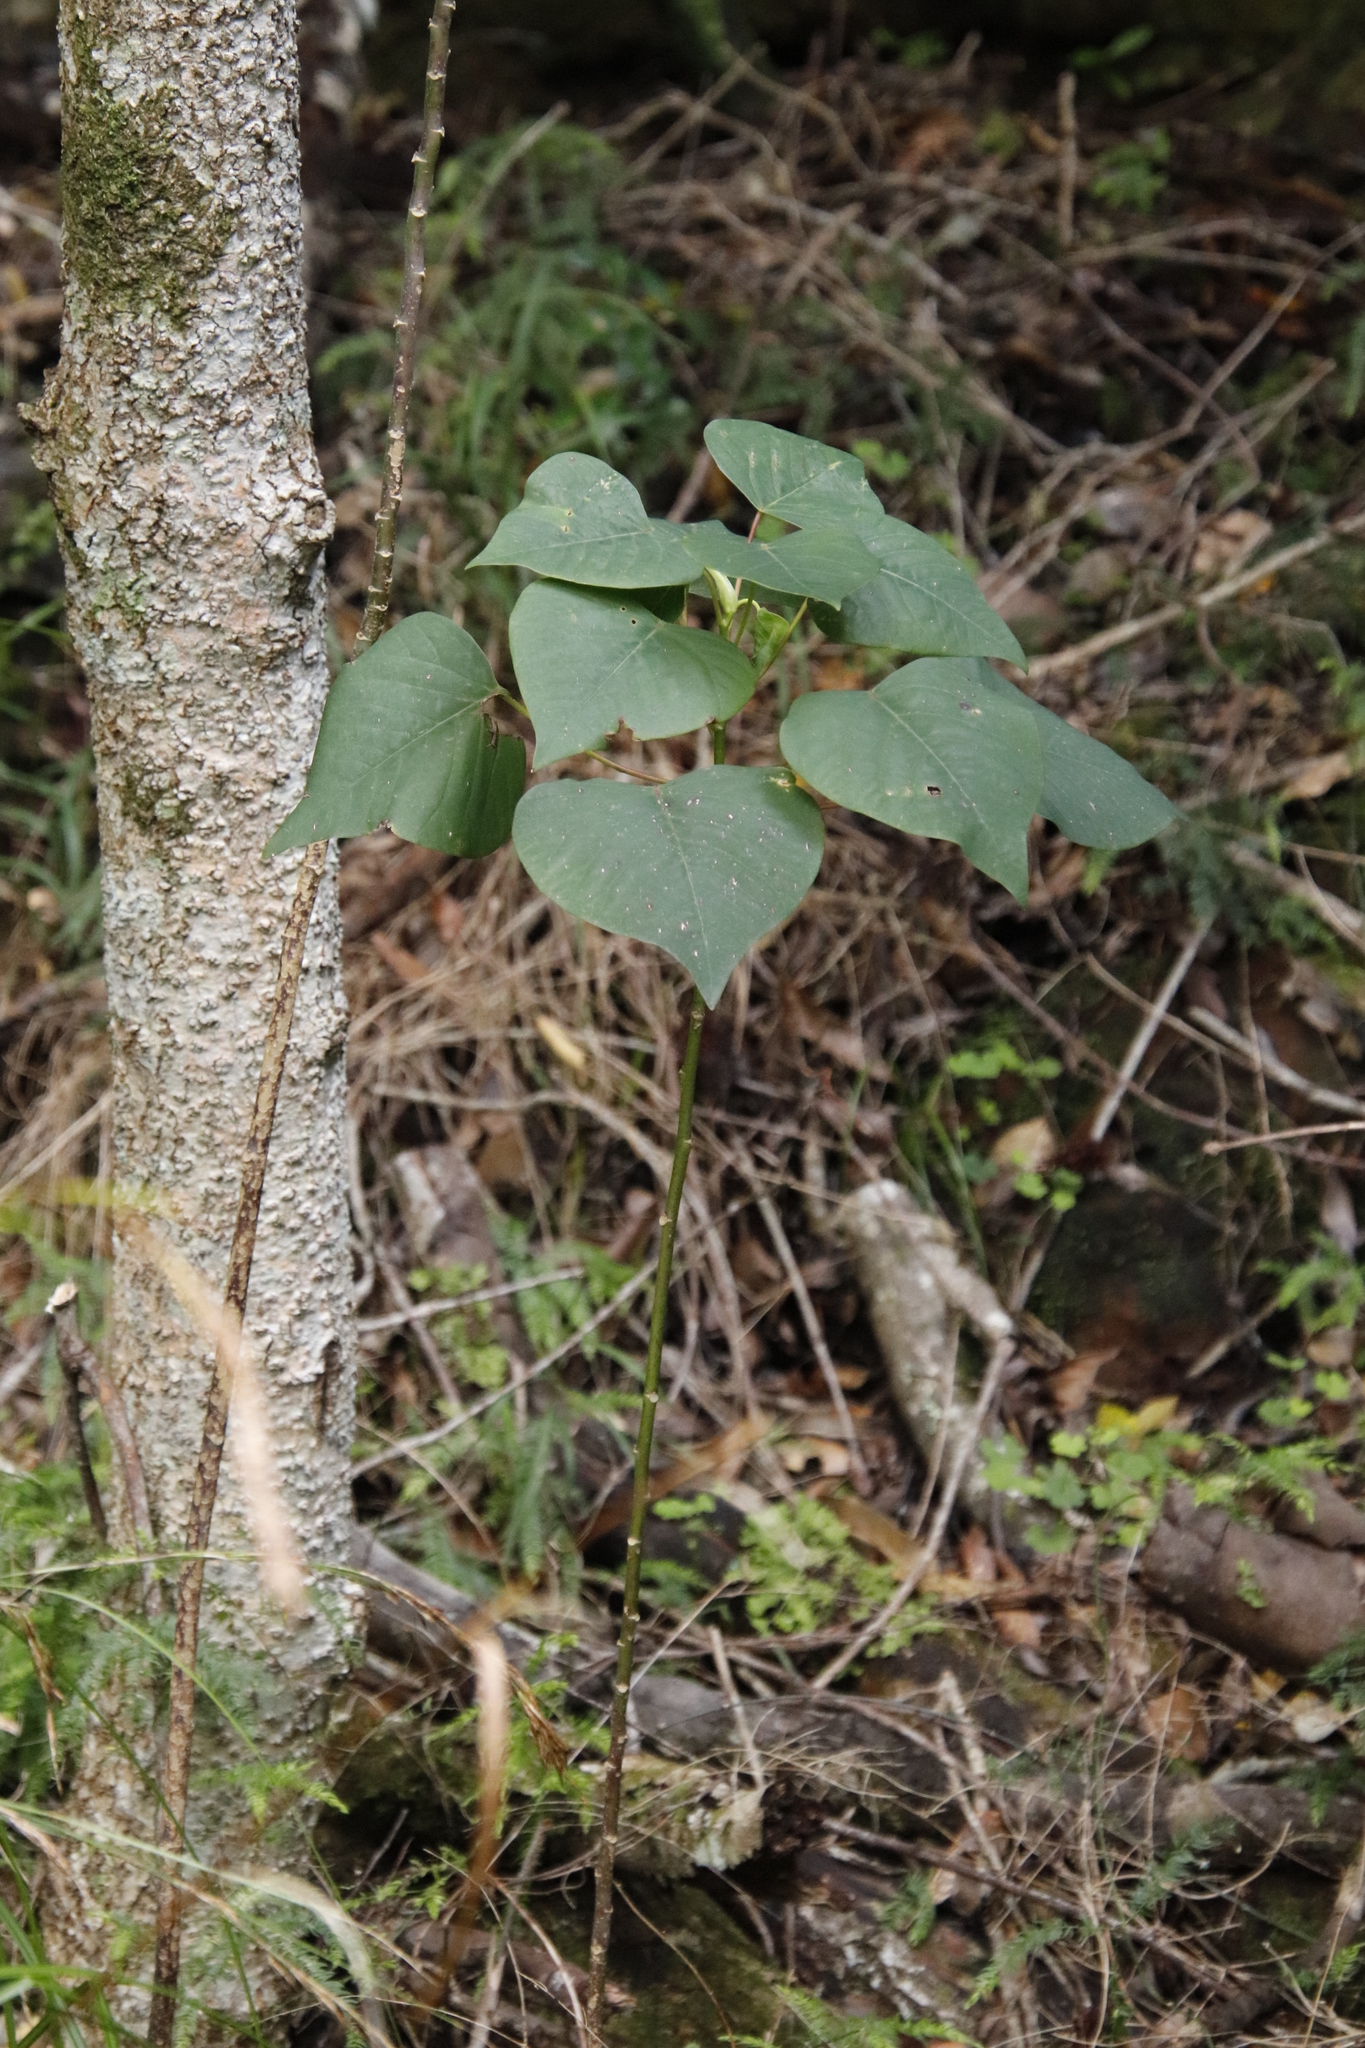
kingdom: Plantae
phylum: Tracheophyta
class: Magnoliopsida
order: Malpighiales
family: Euphorbiaceae
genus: Homalanthus
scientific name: Homalanthus populifolius
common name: Queensland poplar
